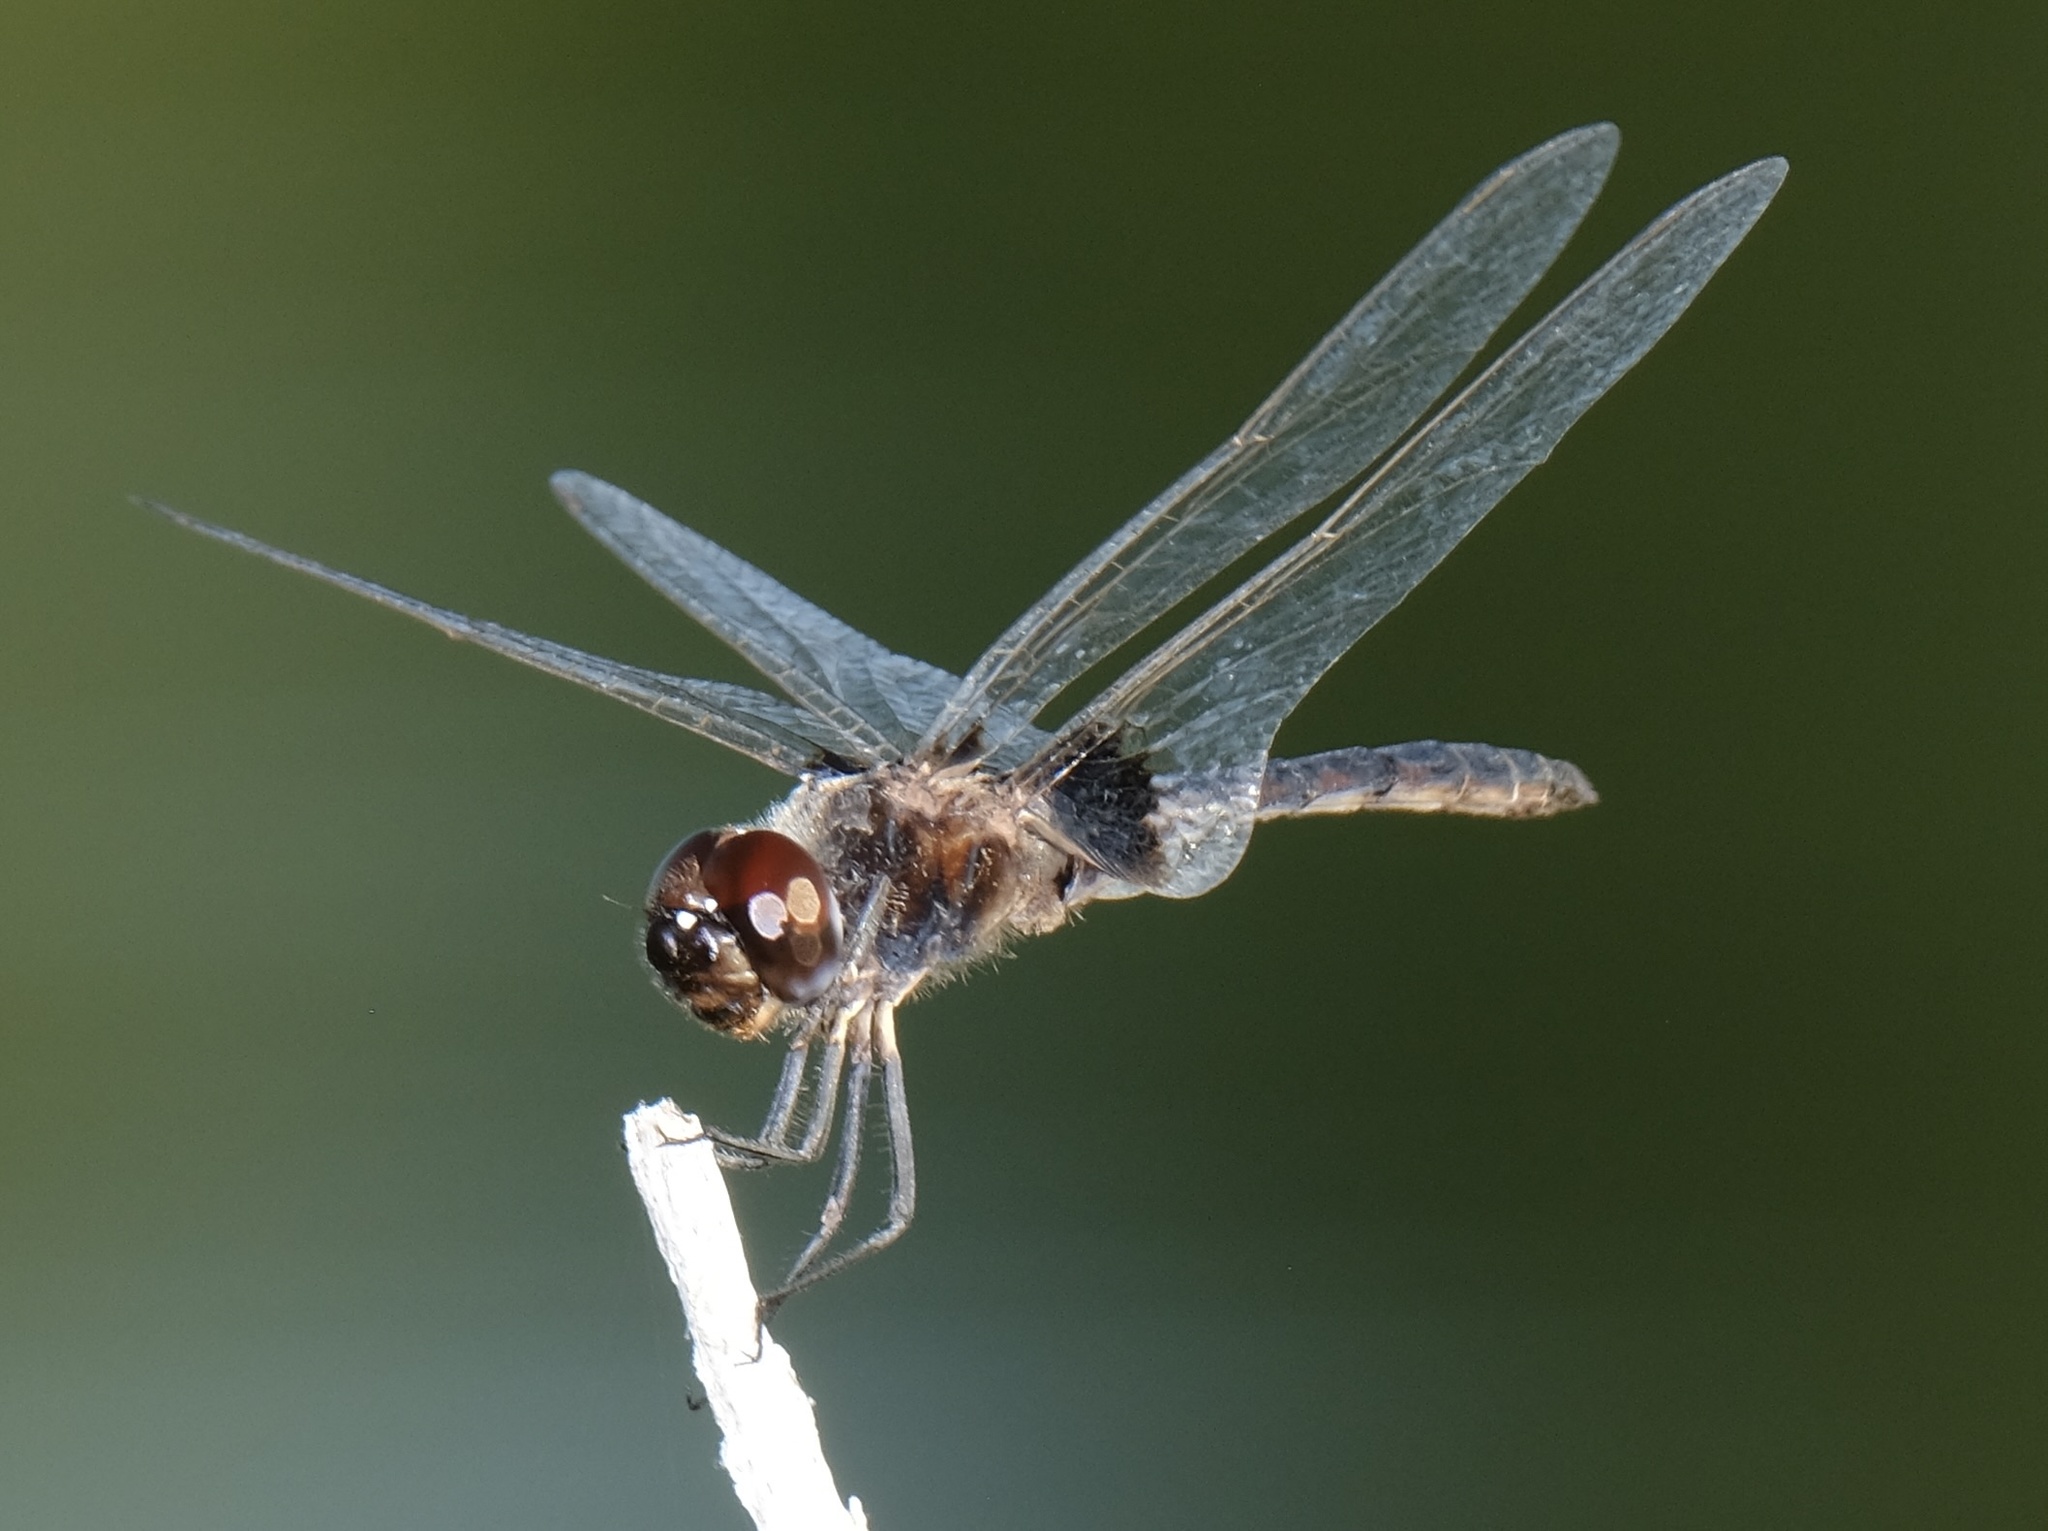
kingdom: Animalia
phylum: Arthropoda
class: Insecta
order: Odonata
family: Libellulidae
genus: Macrodiplax
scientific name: Macrodiplax balteata
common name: Marl pennant
